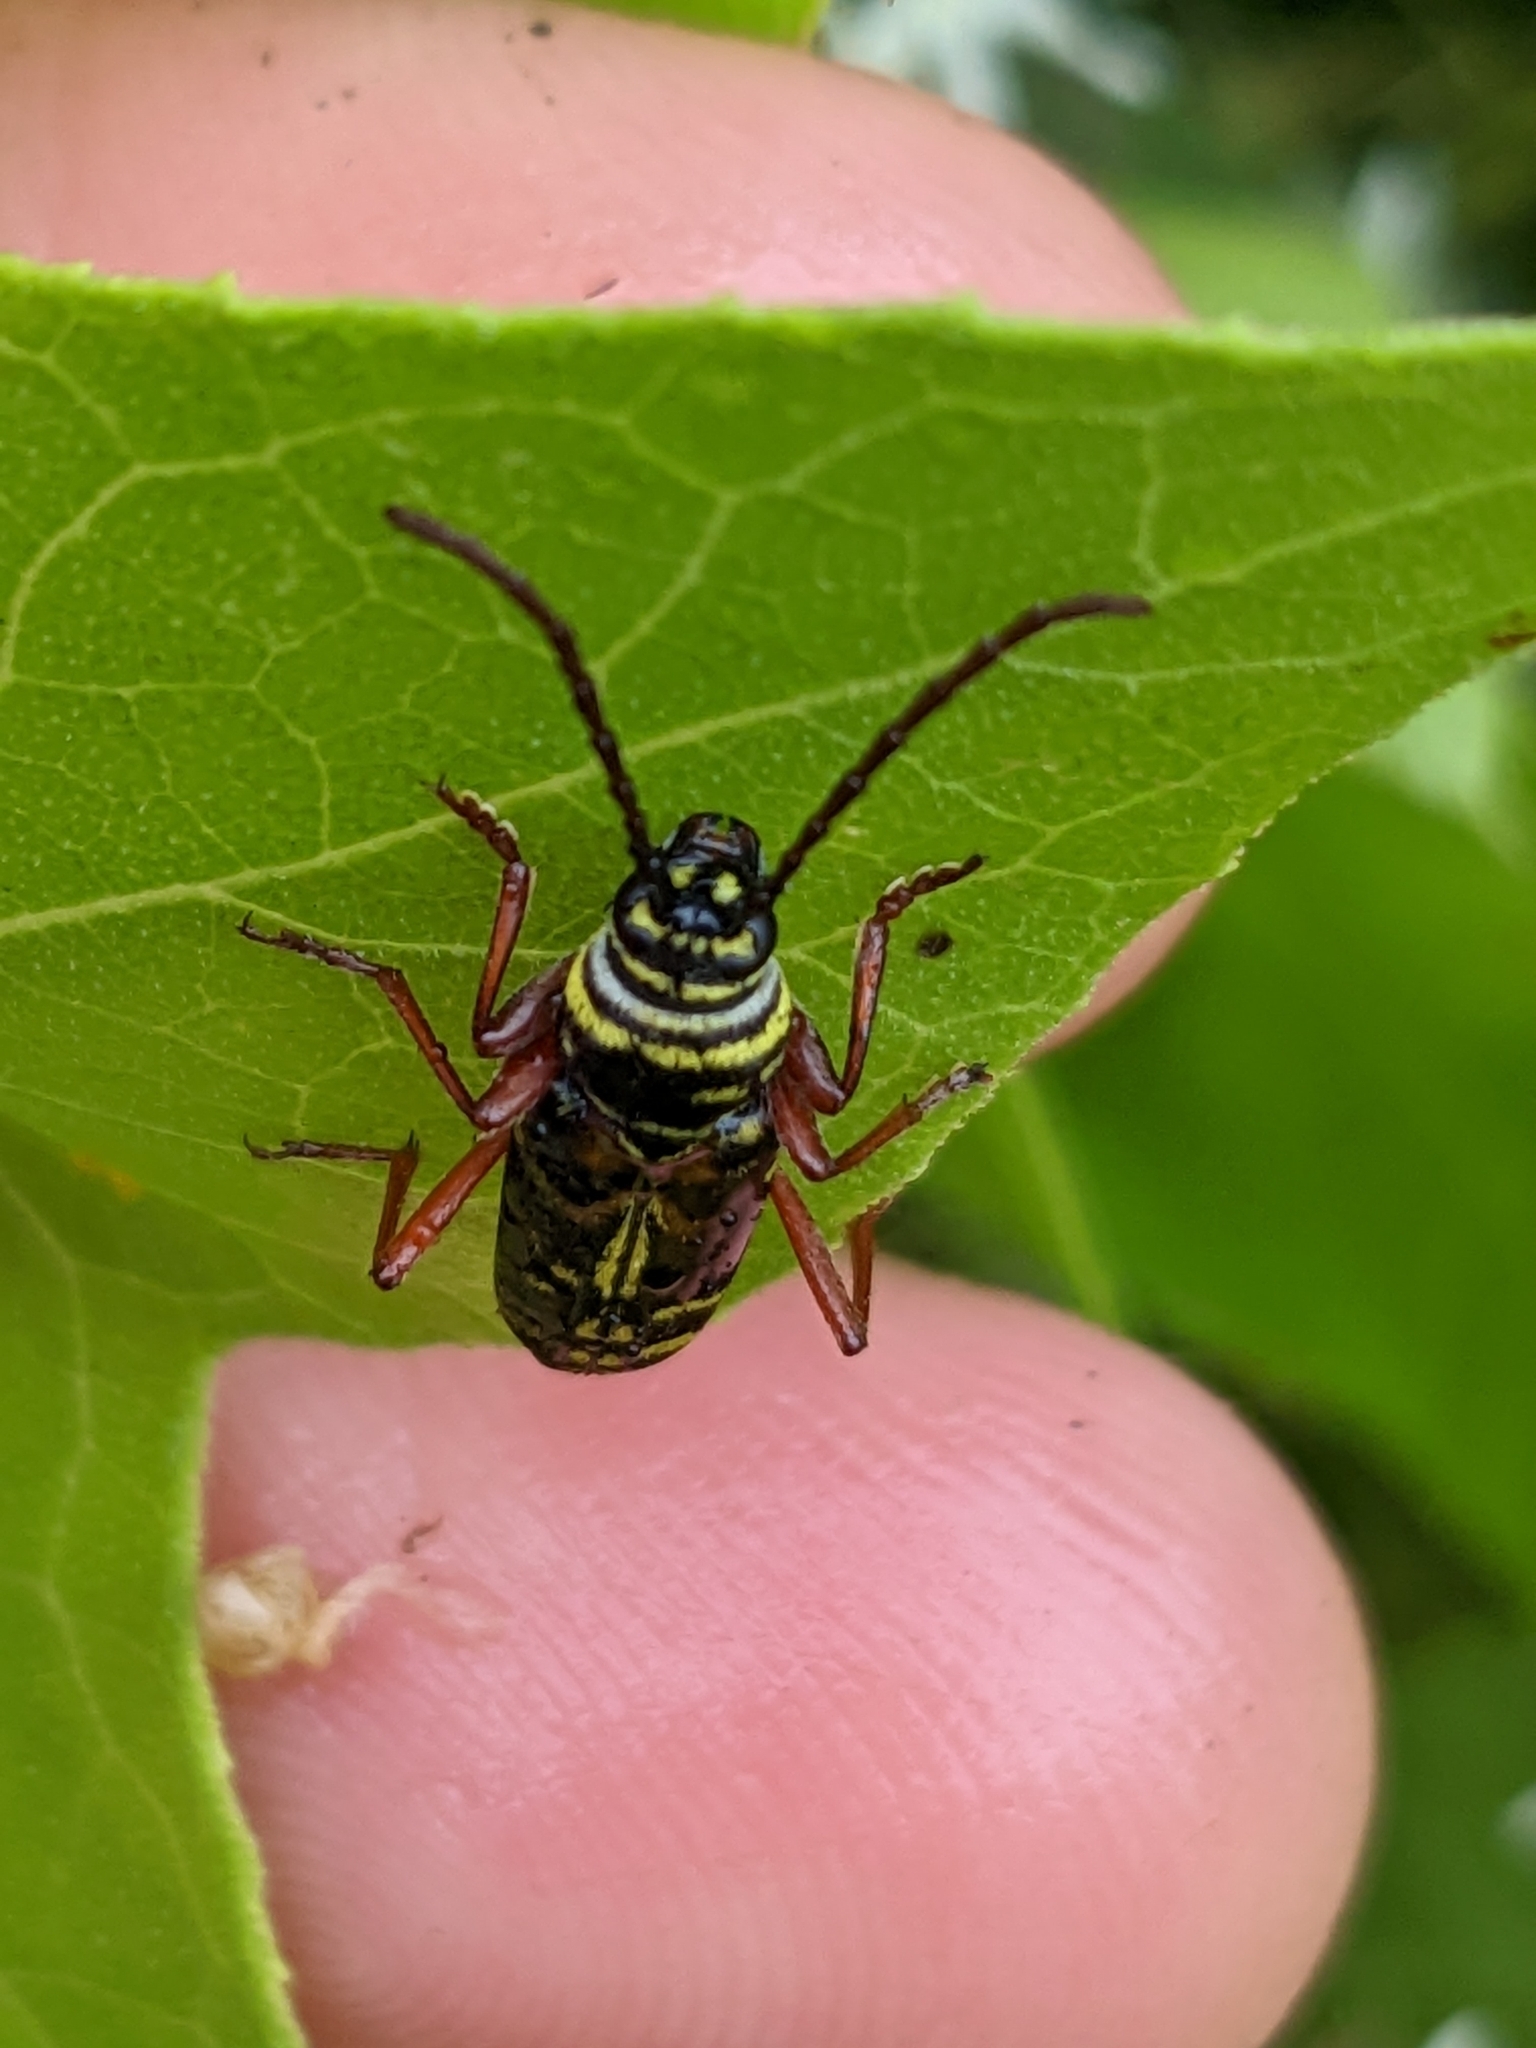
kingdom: Animalia
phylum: Arthropoda
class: Insecta
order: Coleoptera
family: Cerambycidae
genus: Megacyllene
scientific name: Megacyllene robiniae
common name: Locust borer
